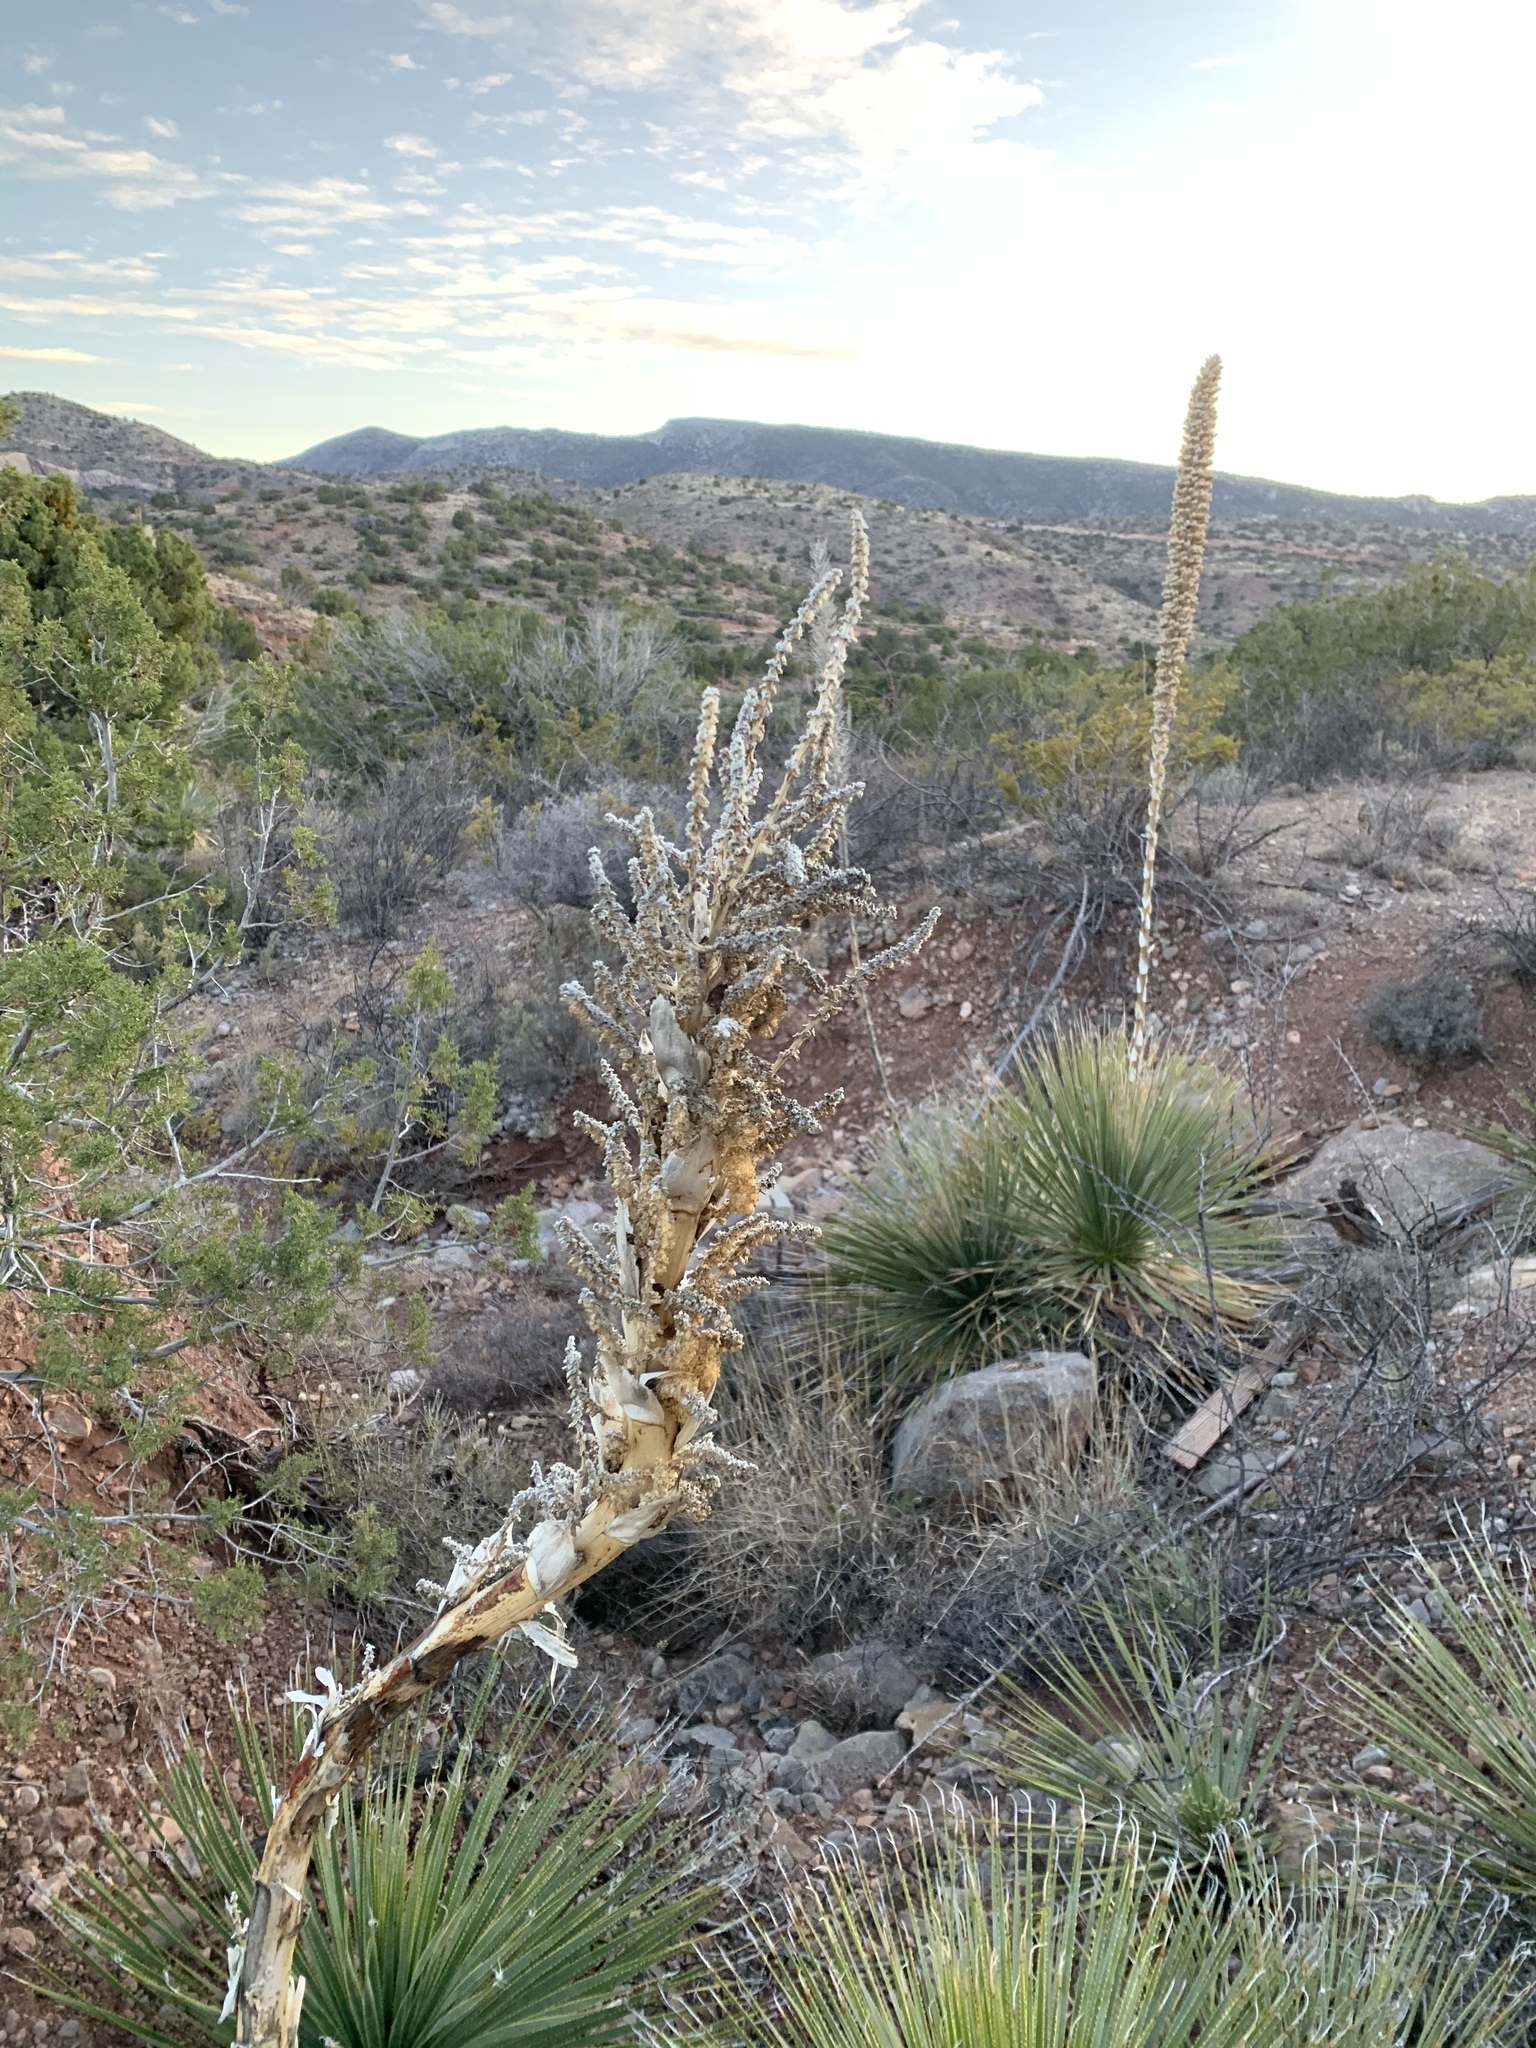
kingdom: Plantae
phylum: Tracheophyta
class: Liliopsida
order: Asparagales
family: Asparagaceae
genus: Dasylirion
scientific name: Dasylirion wheeleri
